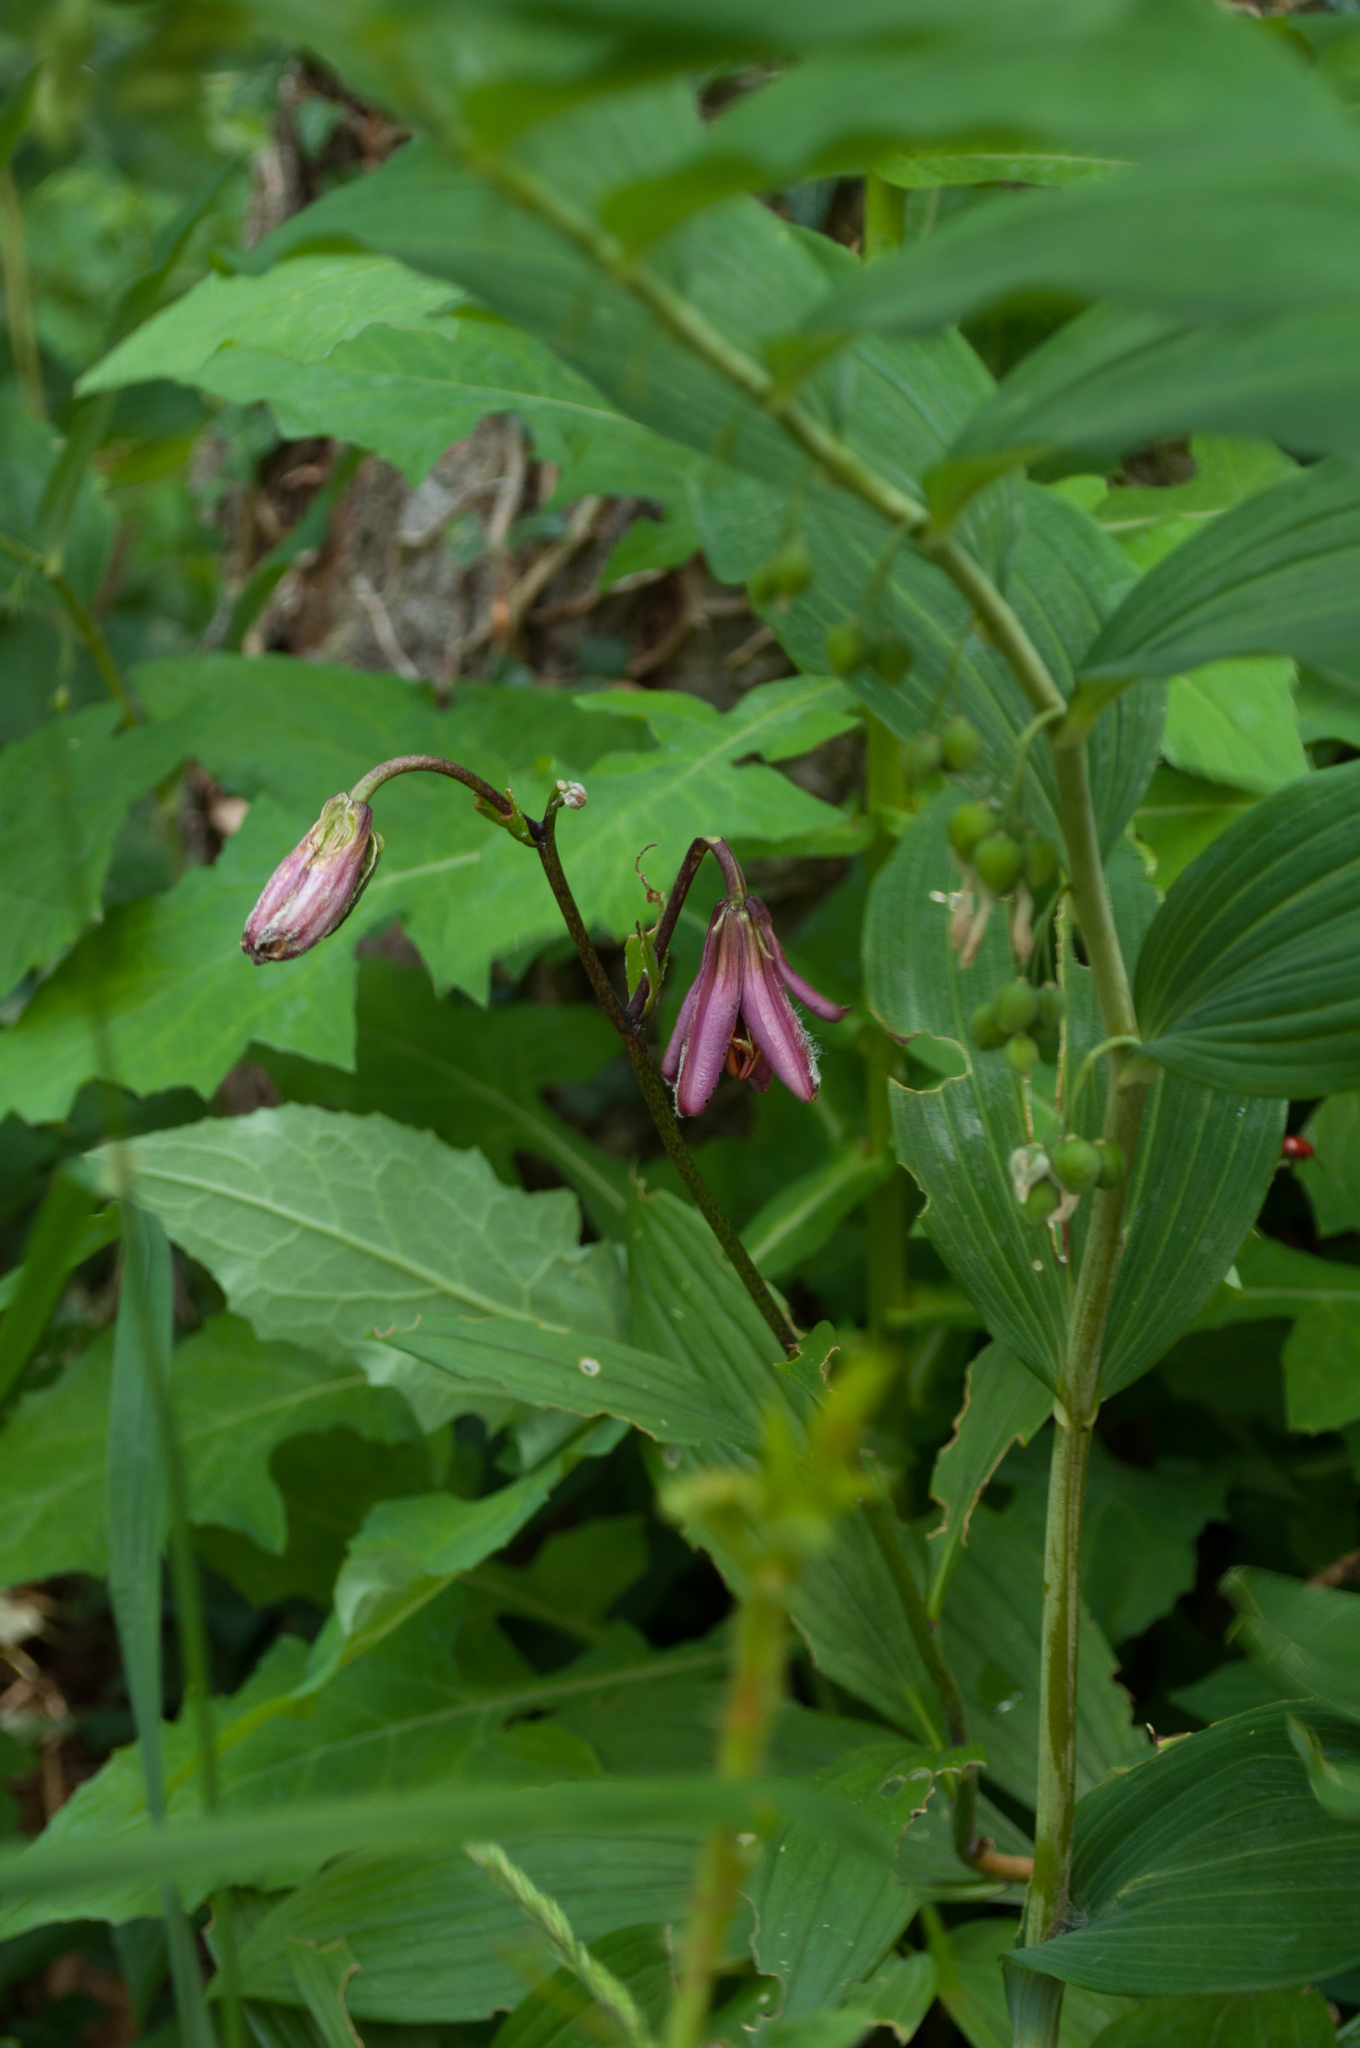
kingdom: Plantae
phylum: Tracheophyta
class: Liliopsida
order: Liliales
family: Liliaceae
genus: Lilium
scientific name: Lilium martagon
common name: Martagon lily
